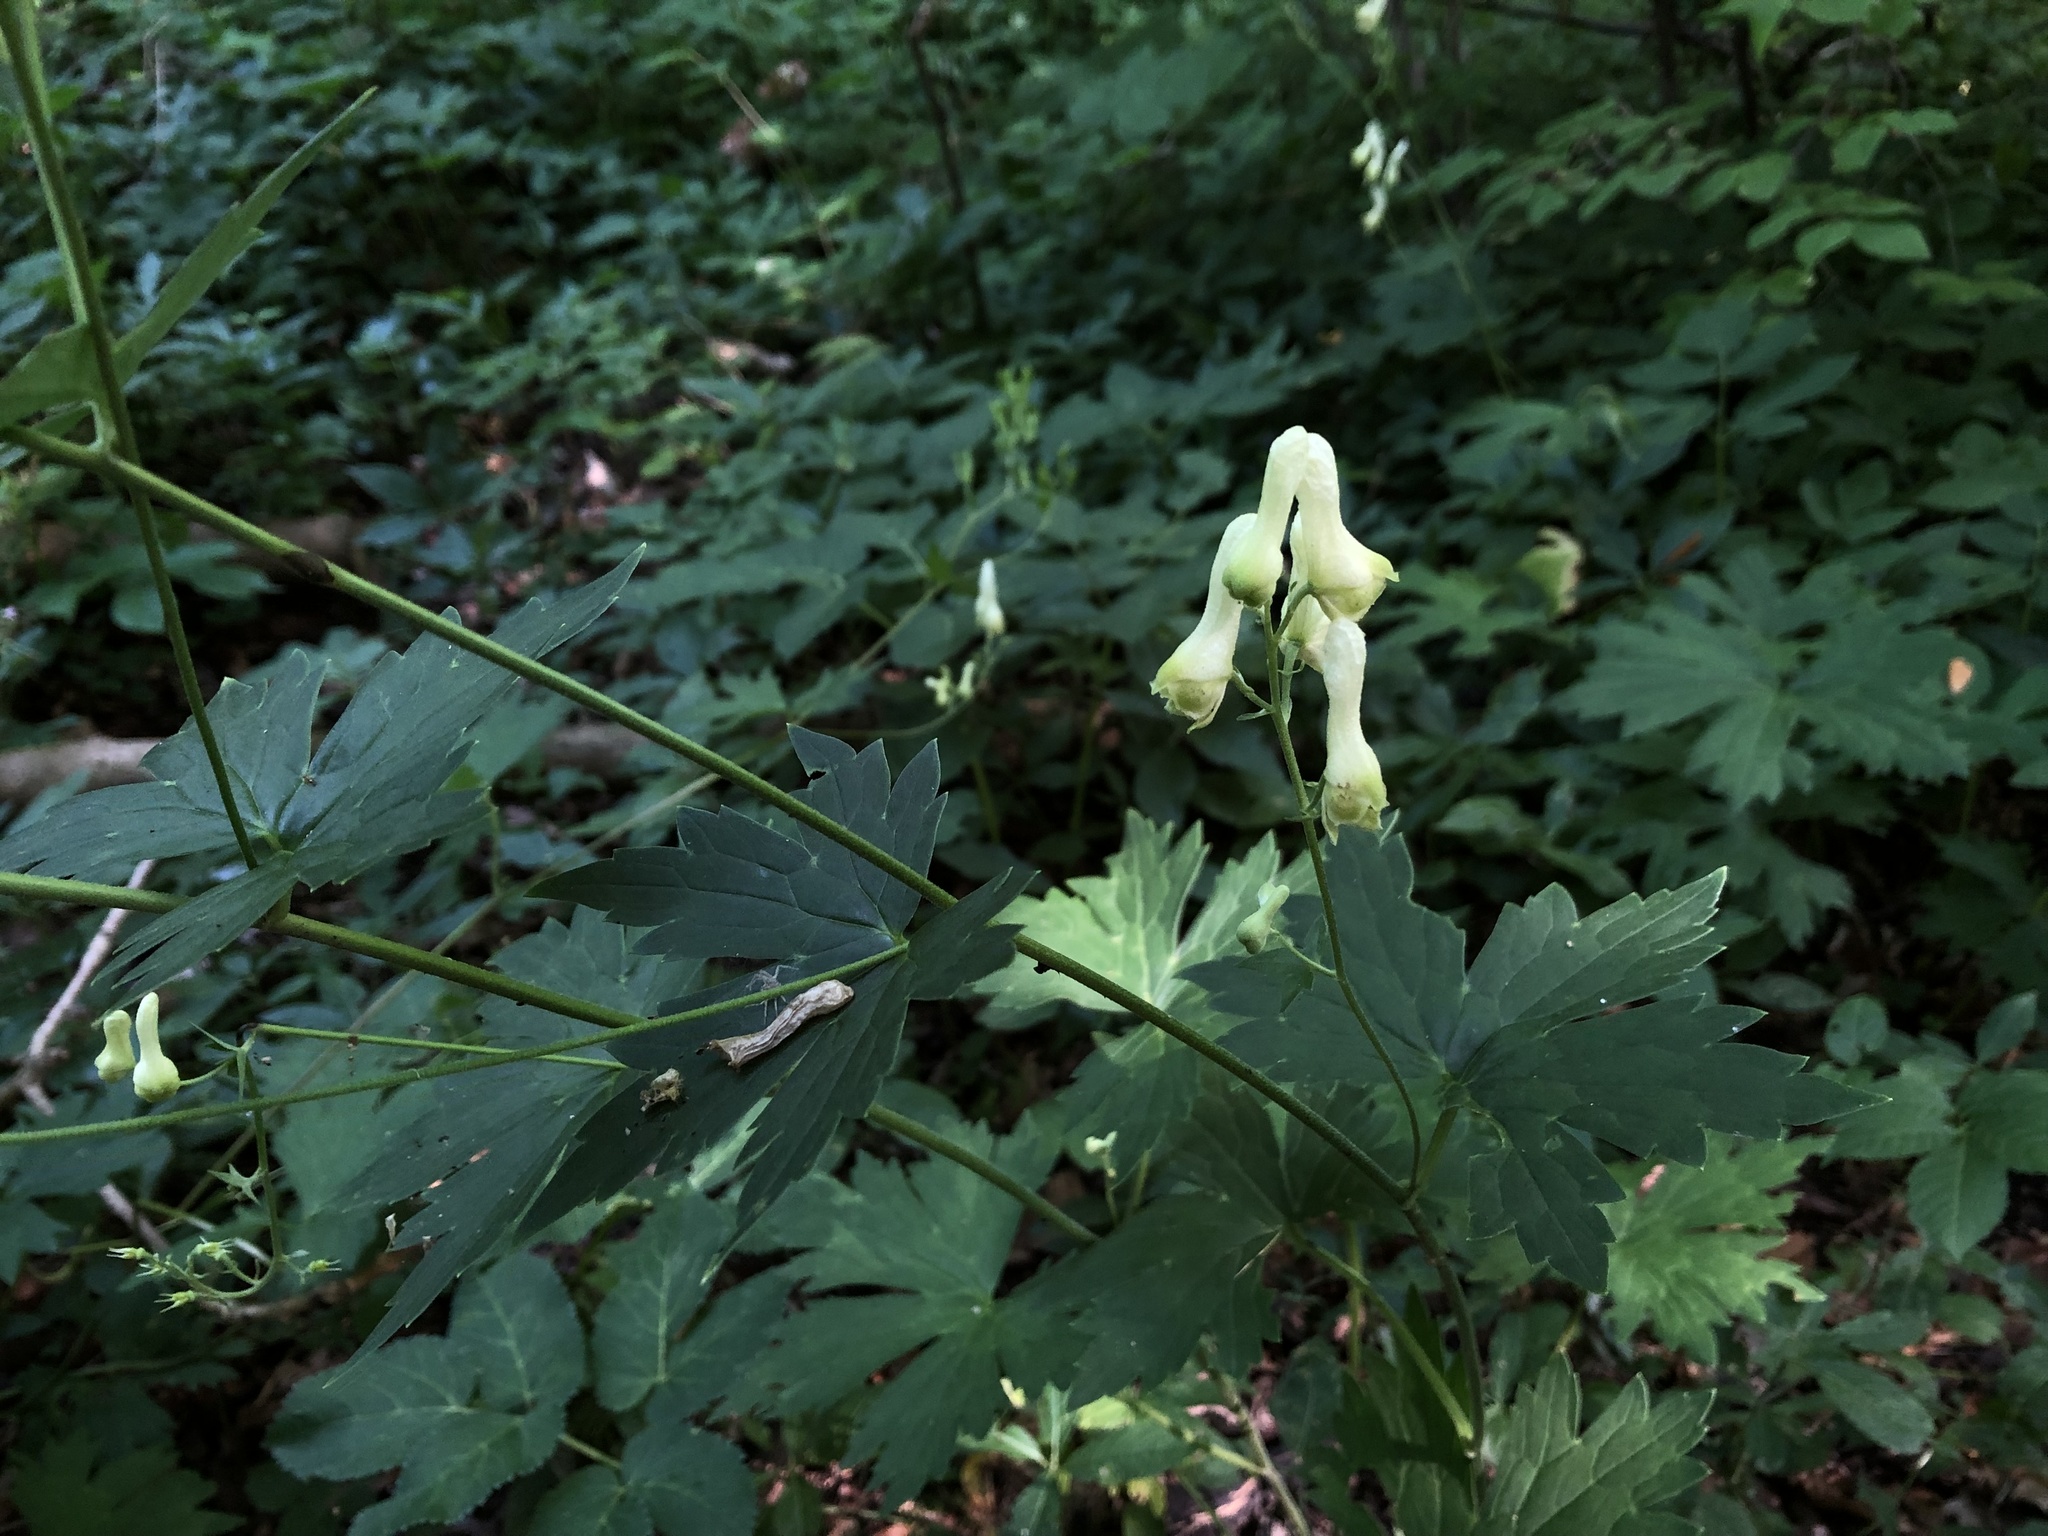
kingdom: Plantae
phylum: Tracheophyta
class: Magnoliopsida
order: Ranunculales
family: Ranunculaceae
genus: Aconitum
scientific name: Aconitum lycoctonum
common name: Wolf's-bane
